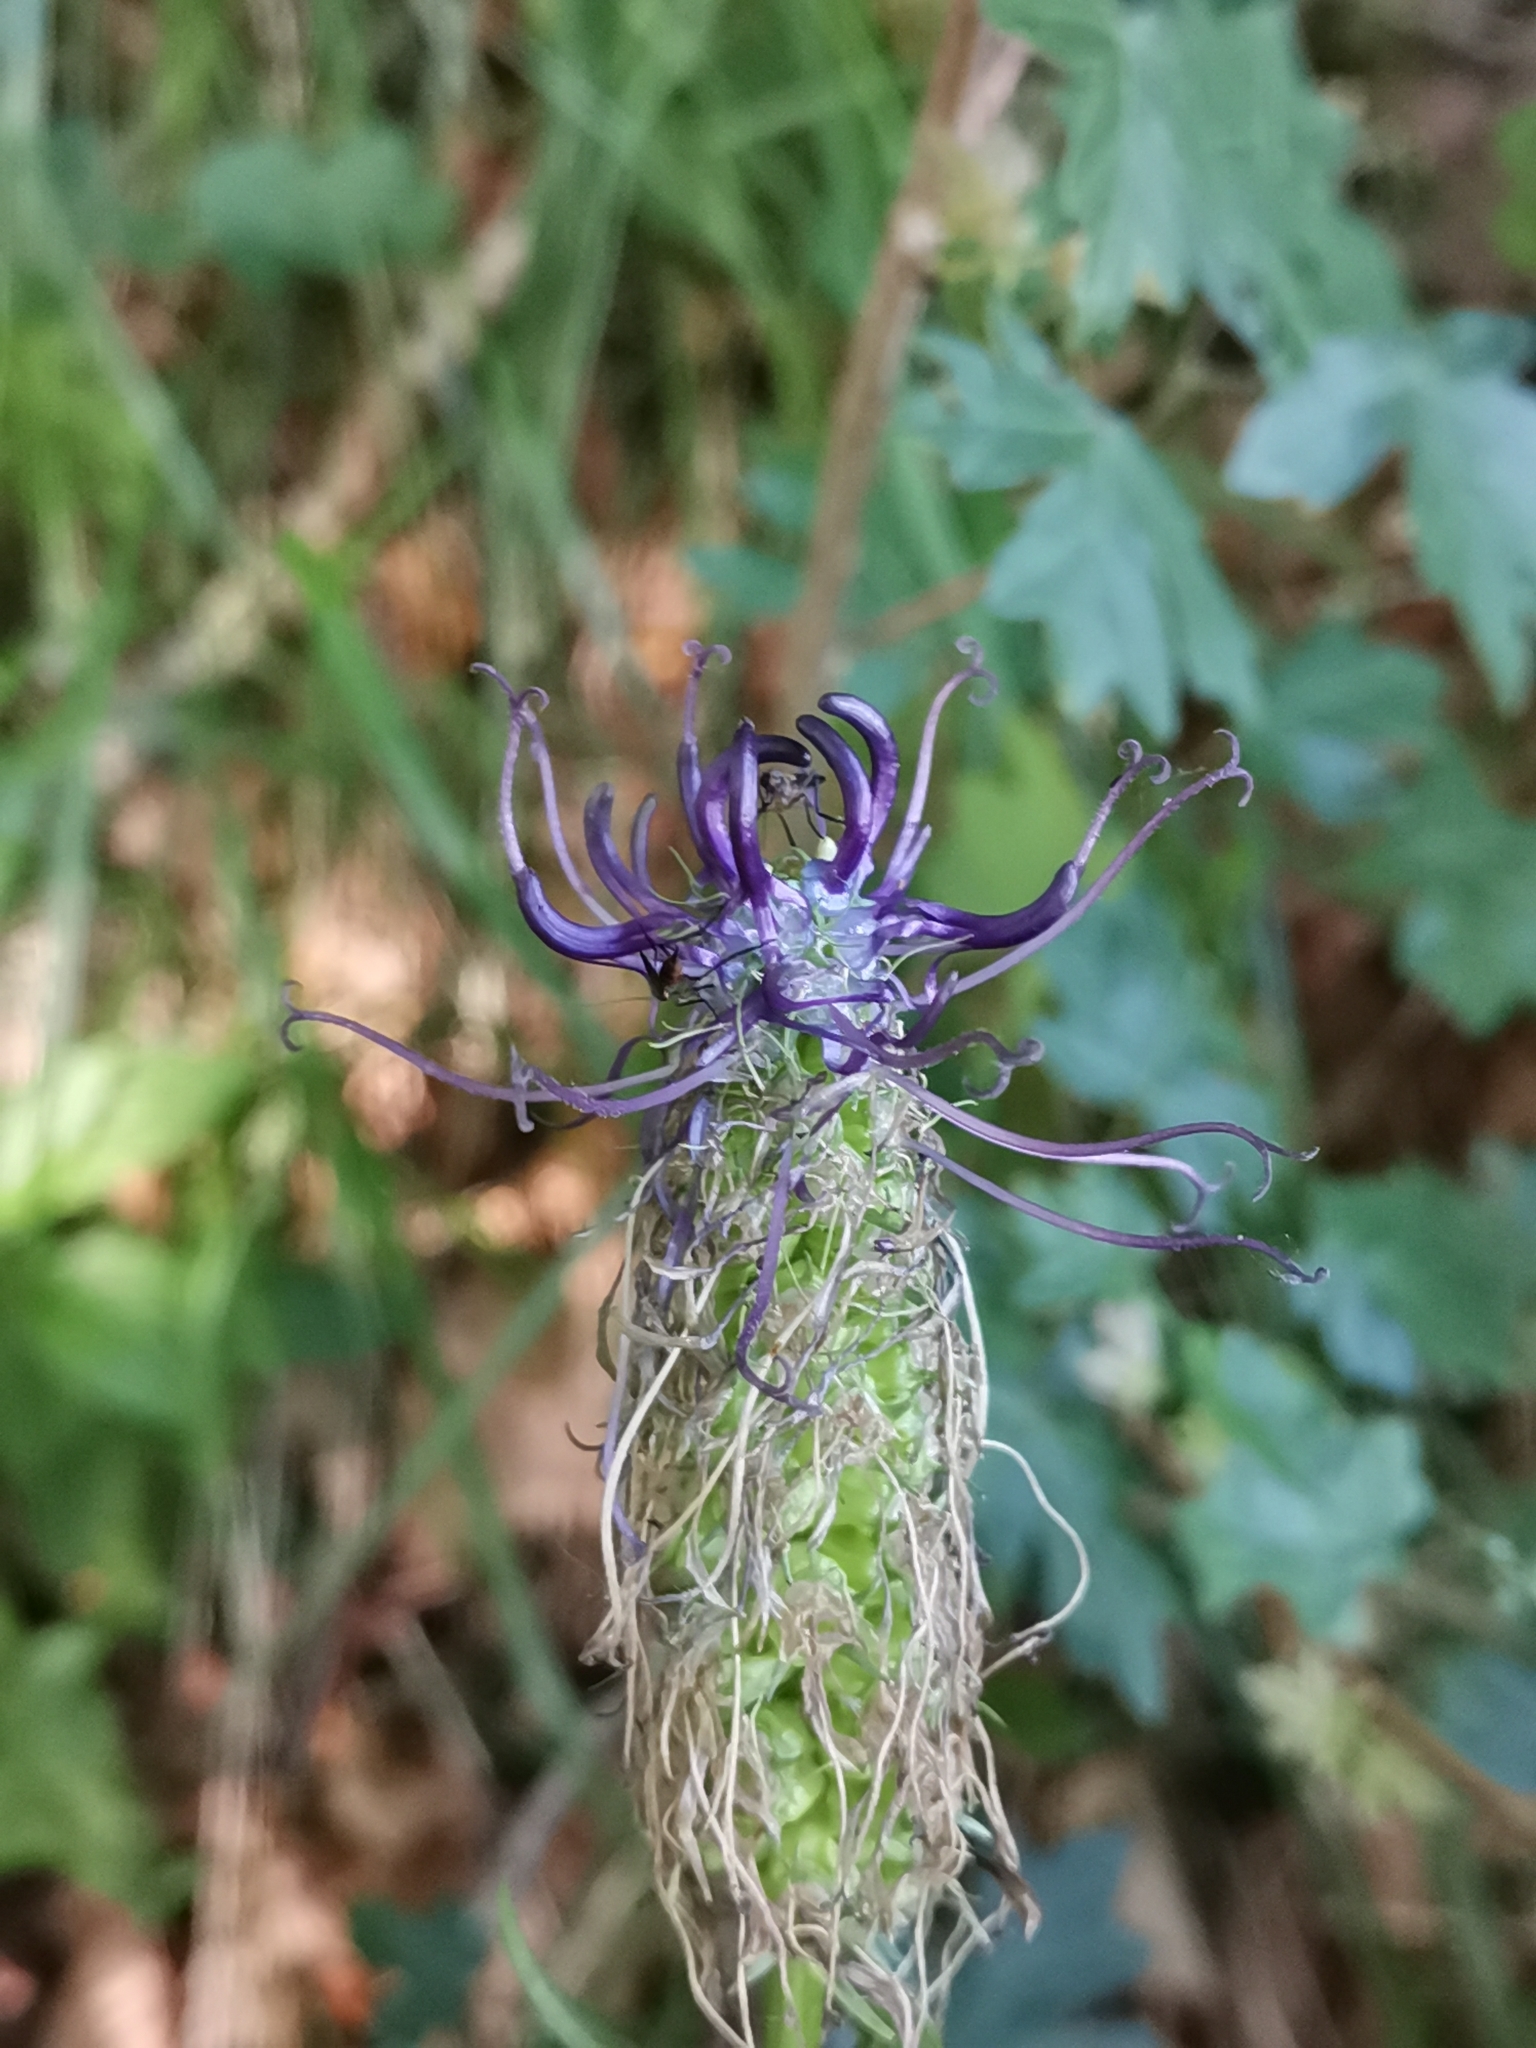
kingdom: Plantae
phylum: Tracheophyta
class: Magnoliopsida
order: Asterales
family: Campanulaceae
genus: Phyteuma
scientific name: Phyteuma ovatum
